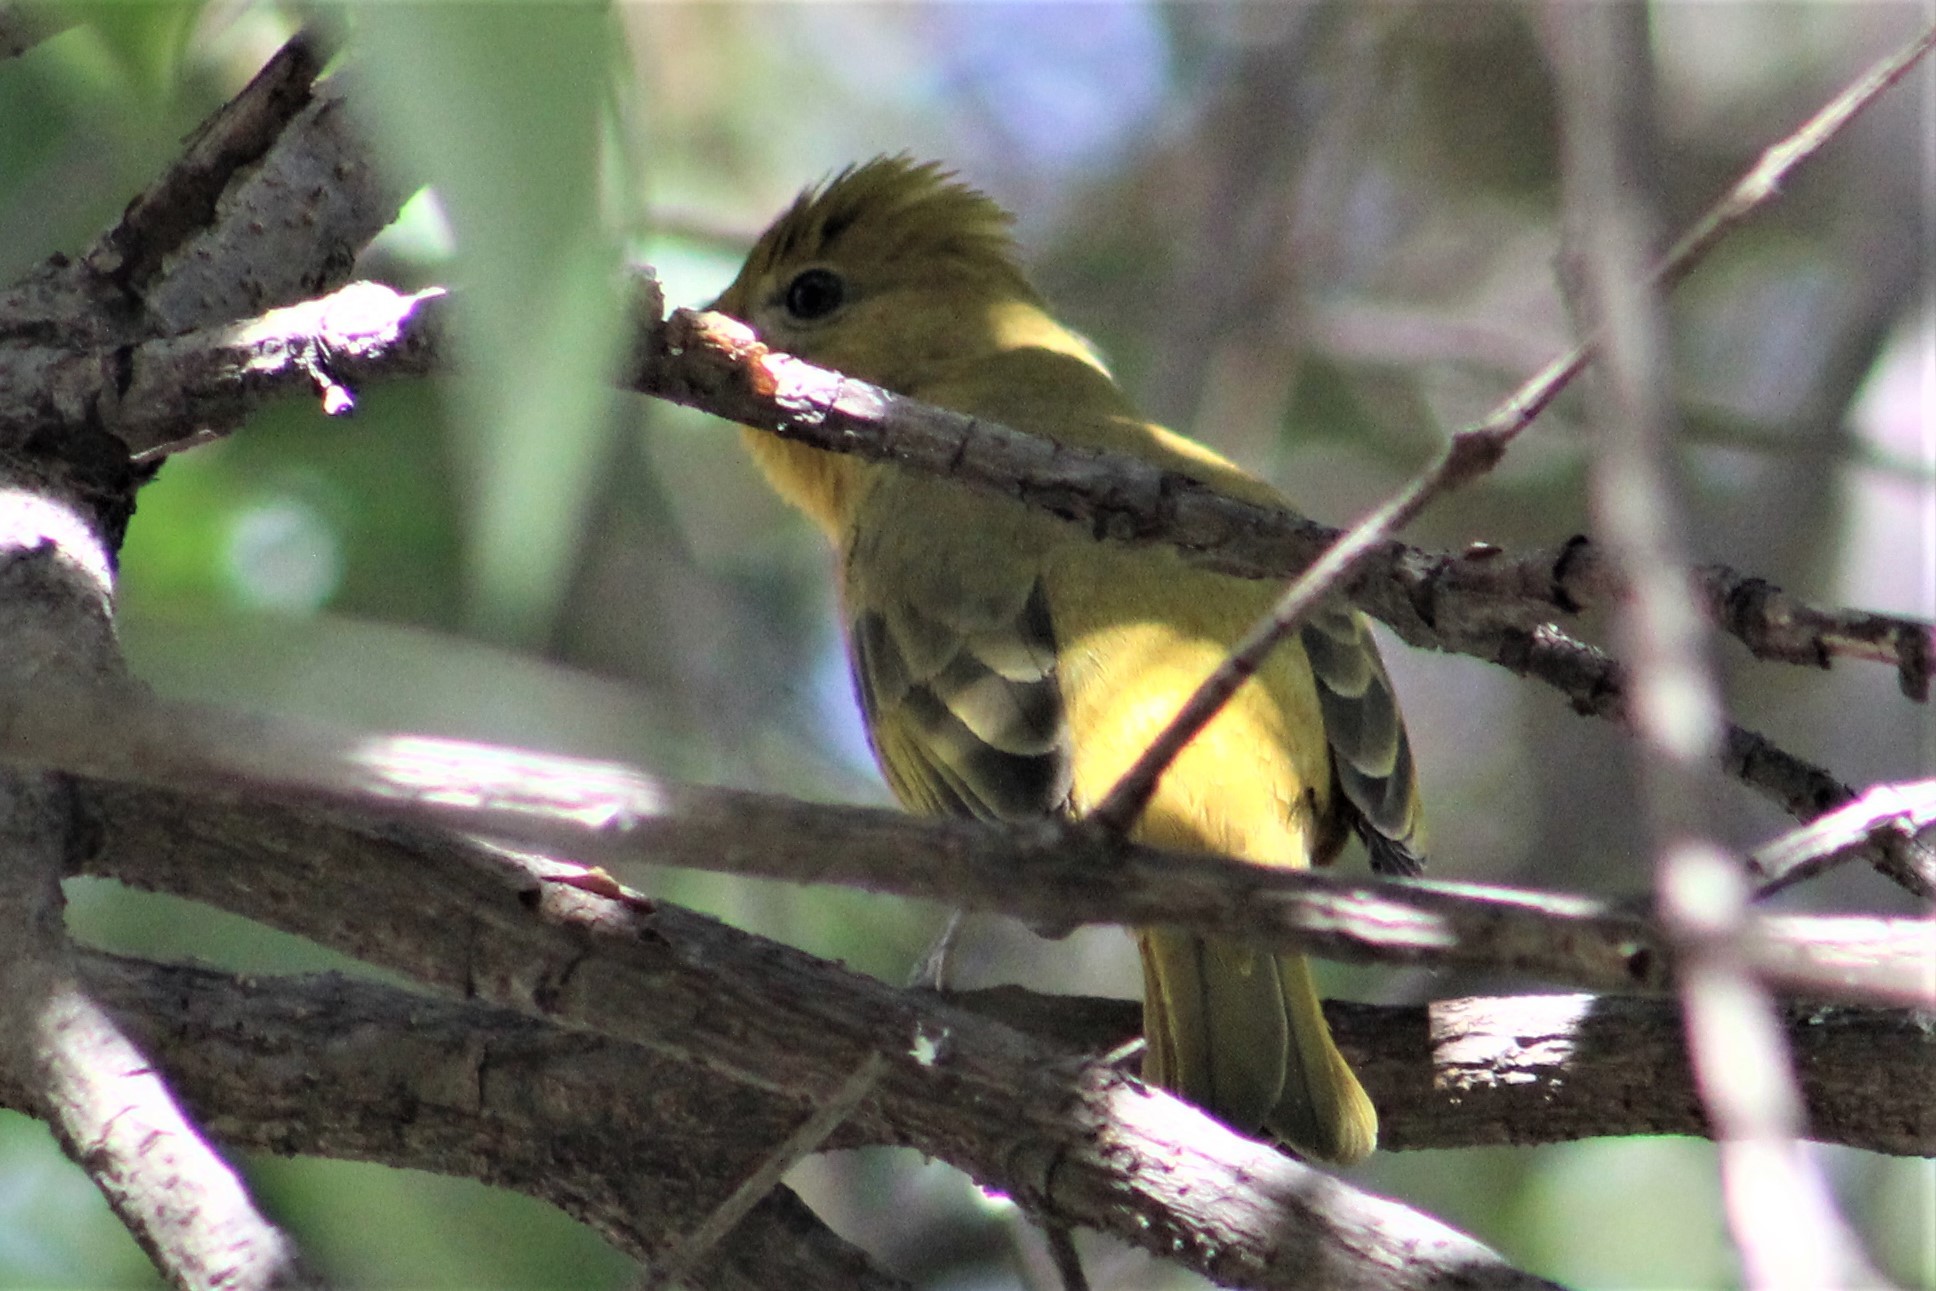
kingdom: Animalia
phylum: Chordata
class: Aves
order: Passeriformes
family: Cardinalidae
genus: Piranga
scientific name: Piranga rubra
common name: Summer tanager
